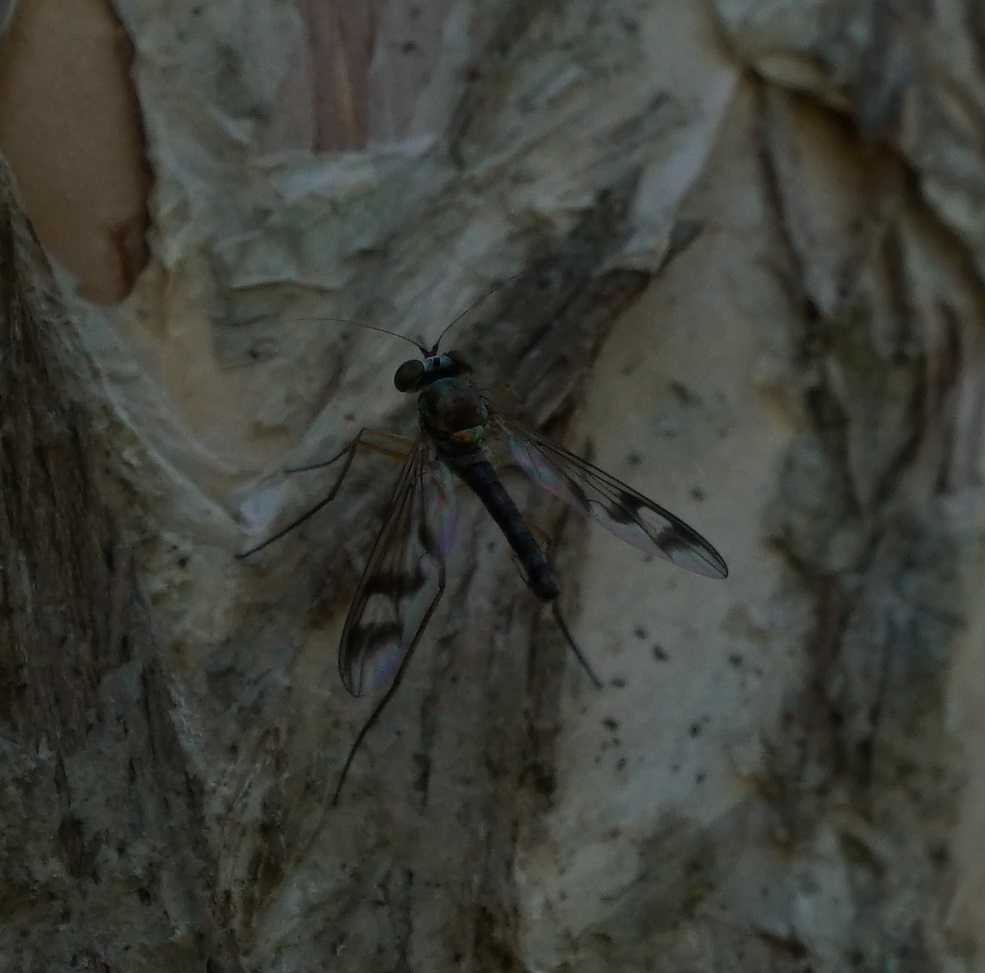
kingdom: Animalia
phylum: Arthropoda
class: Insecta
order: Diptera
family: Dolichopodidae
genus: Heteropsilopus
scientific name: Heteropsilopus squamifer
